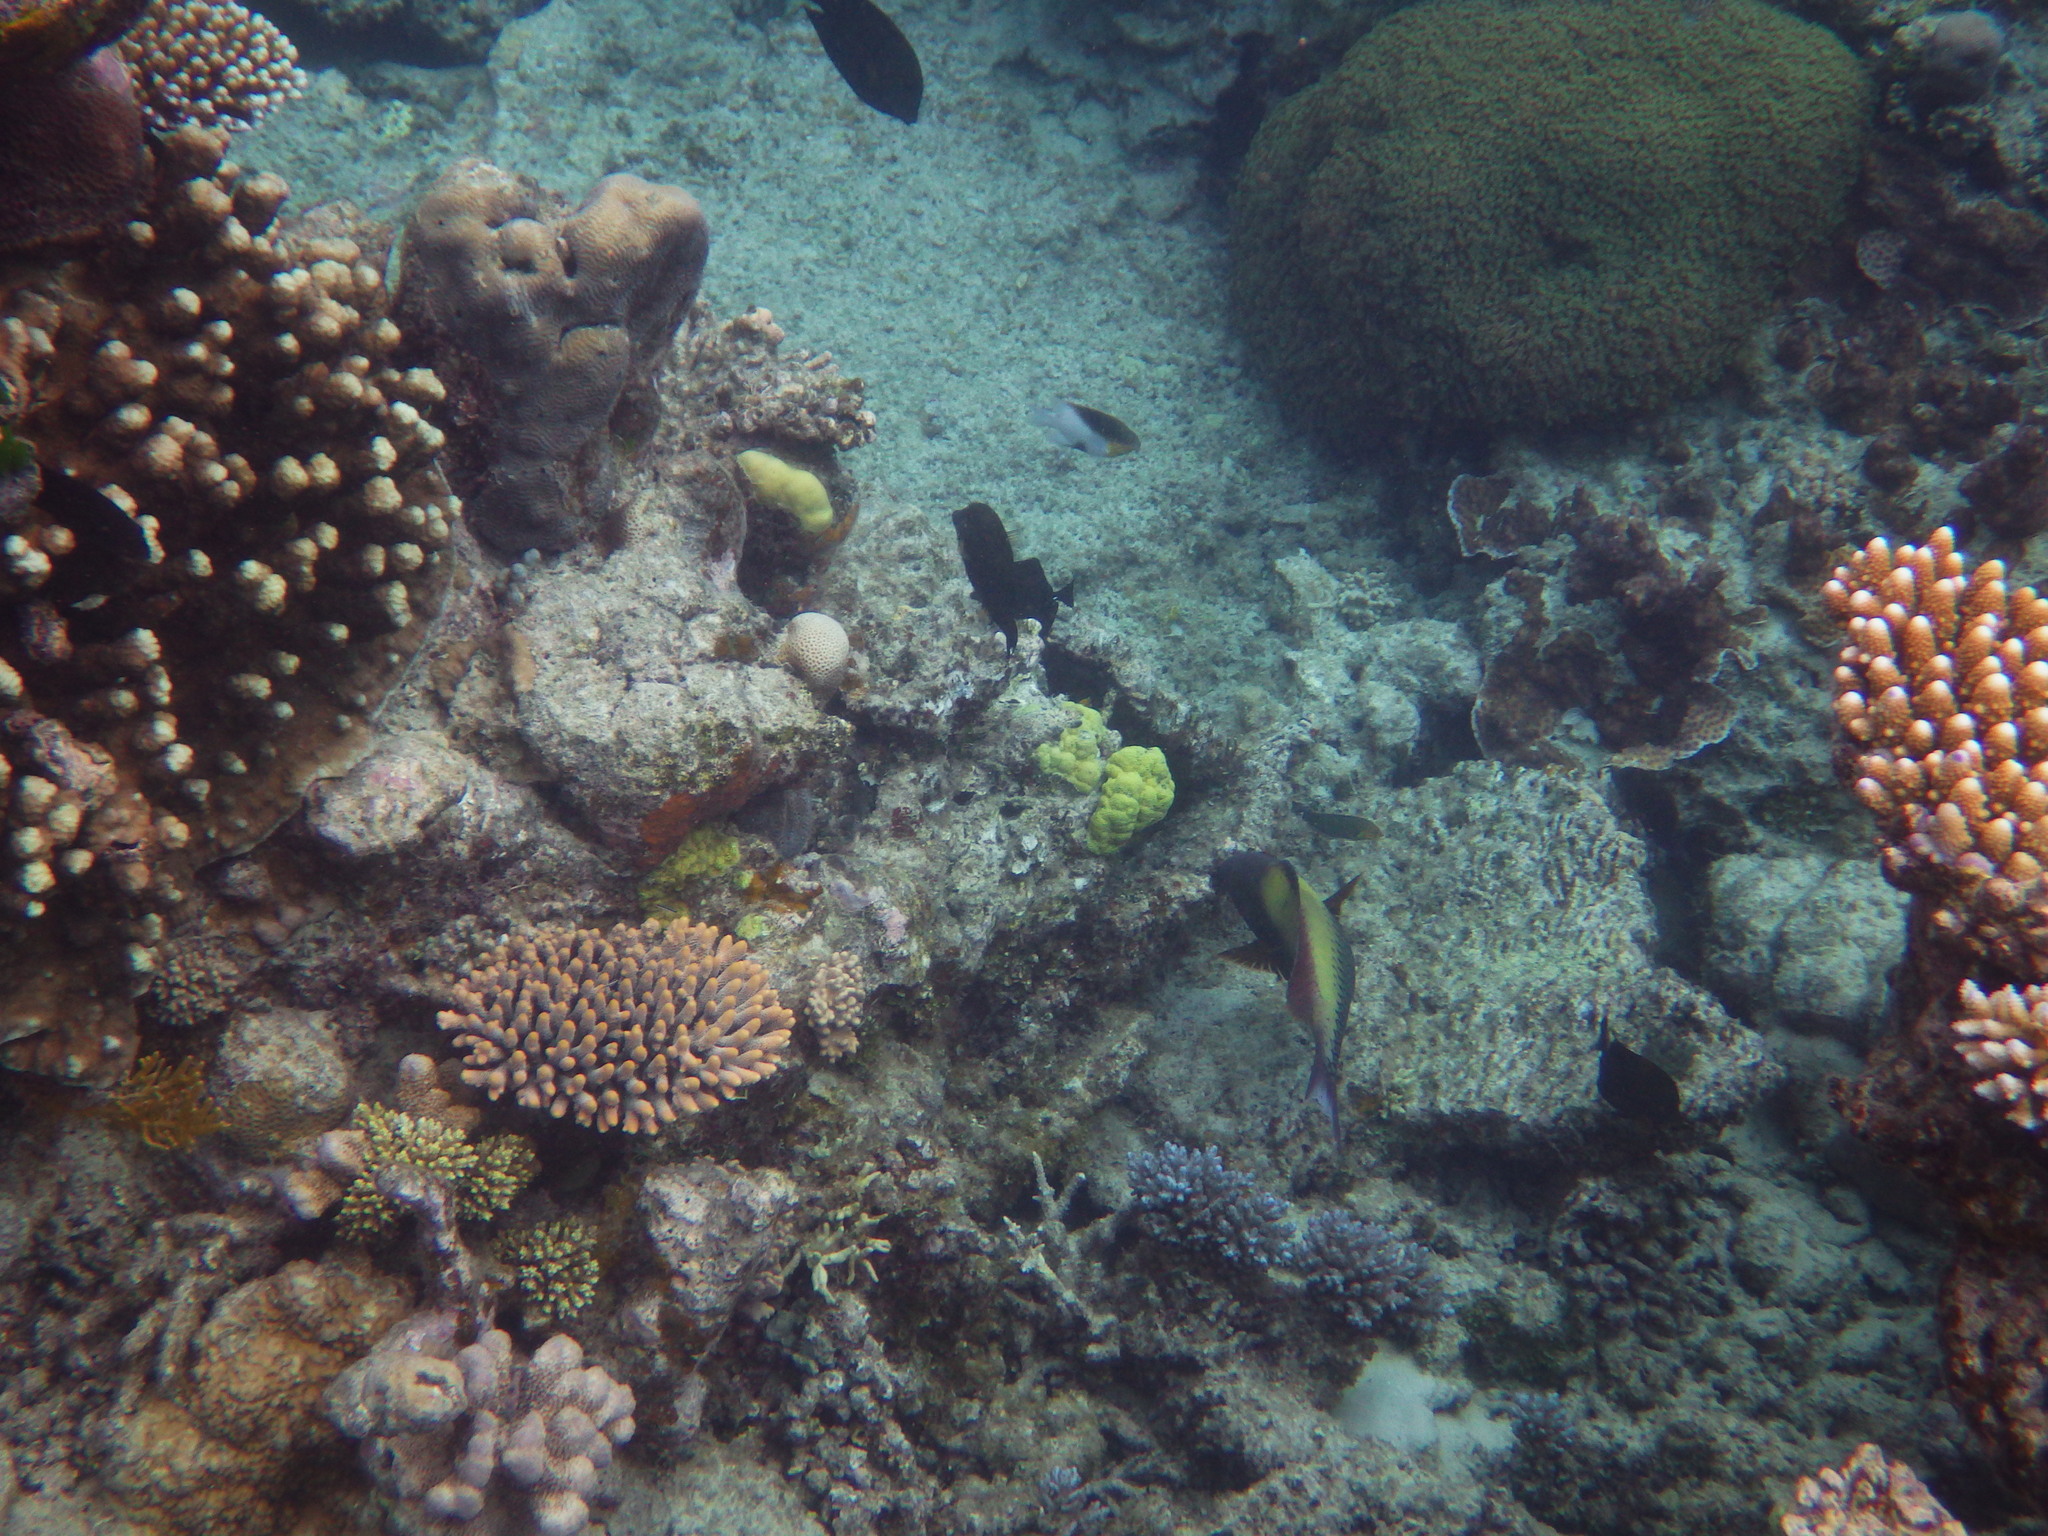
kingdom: Animalia
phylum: Chordata
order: Perciformes
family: Scaridae
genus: Cetoscarus
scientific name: Cetoscarus ocellatus
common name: Bicolor parrotfish
